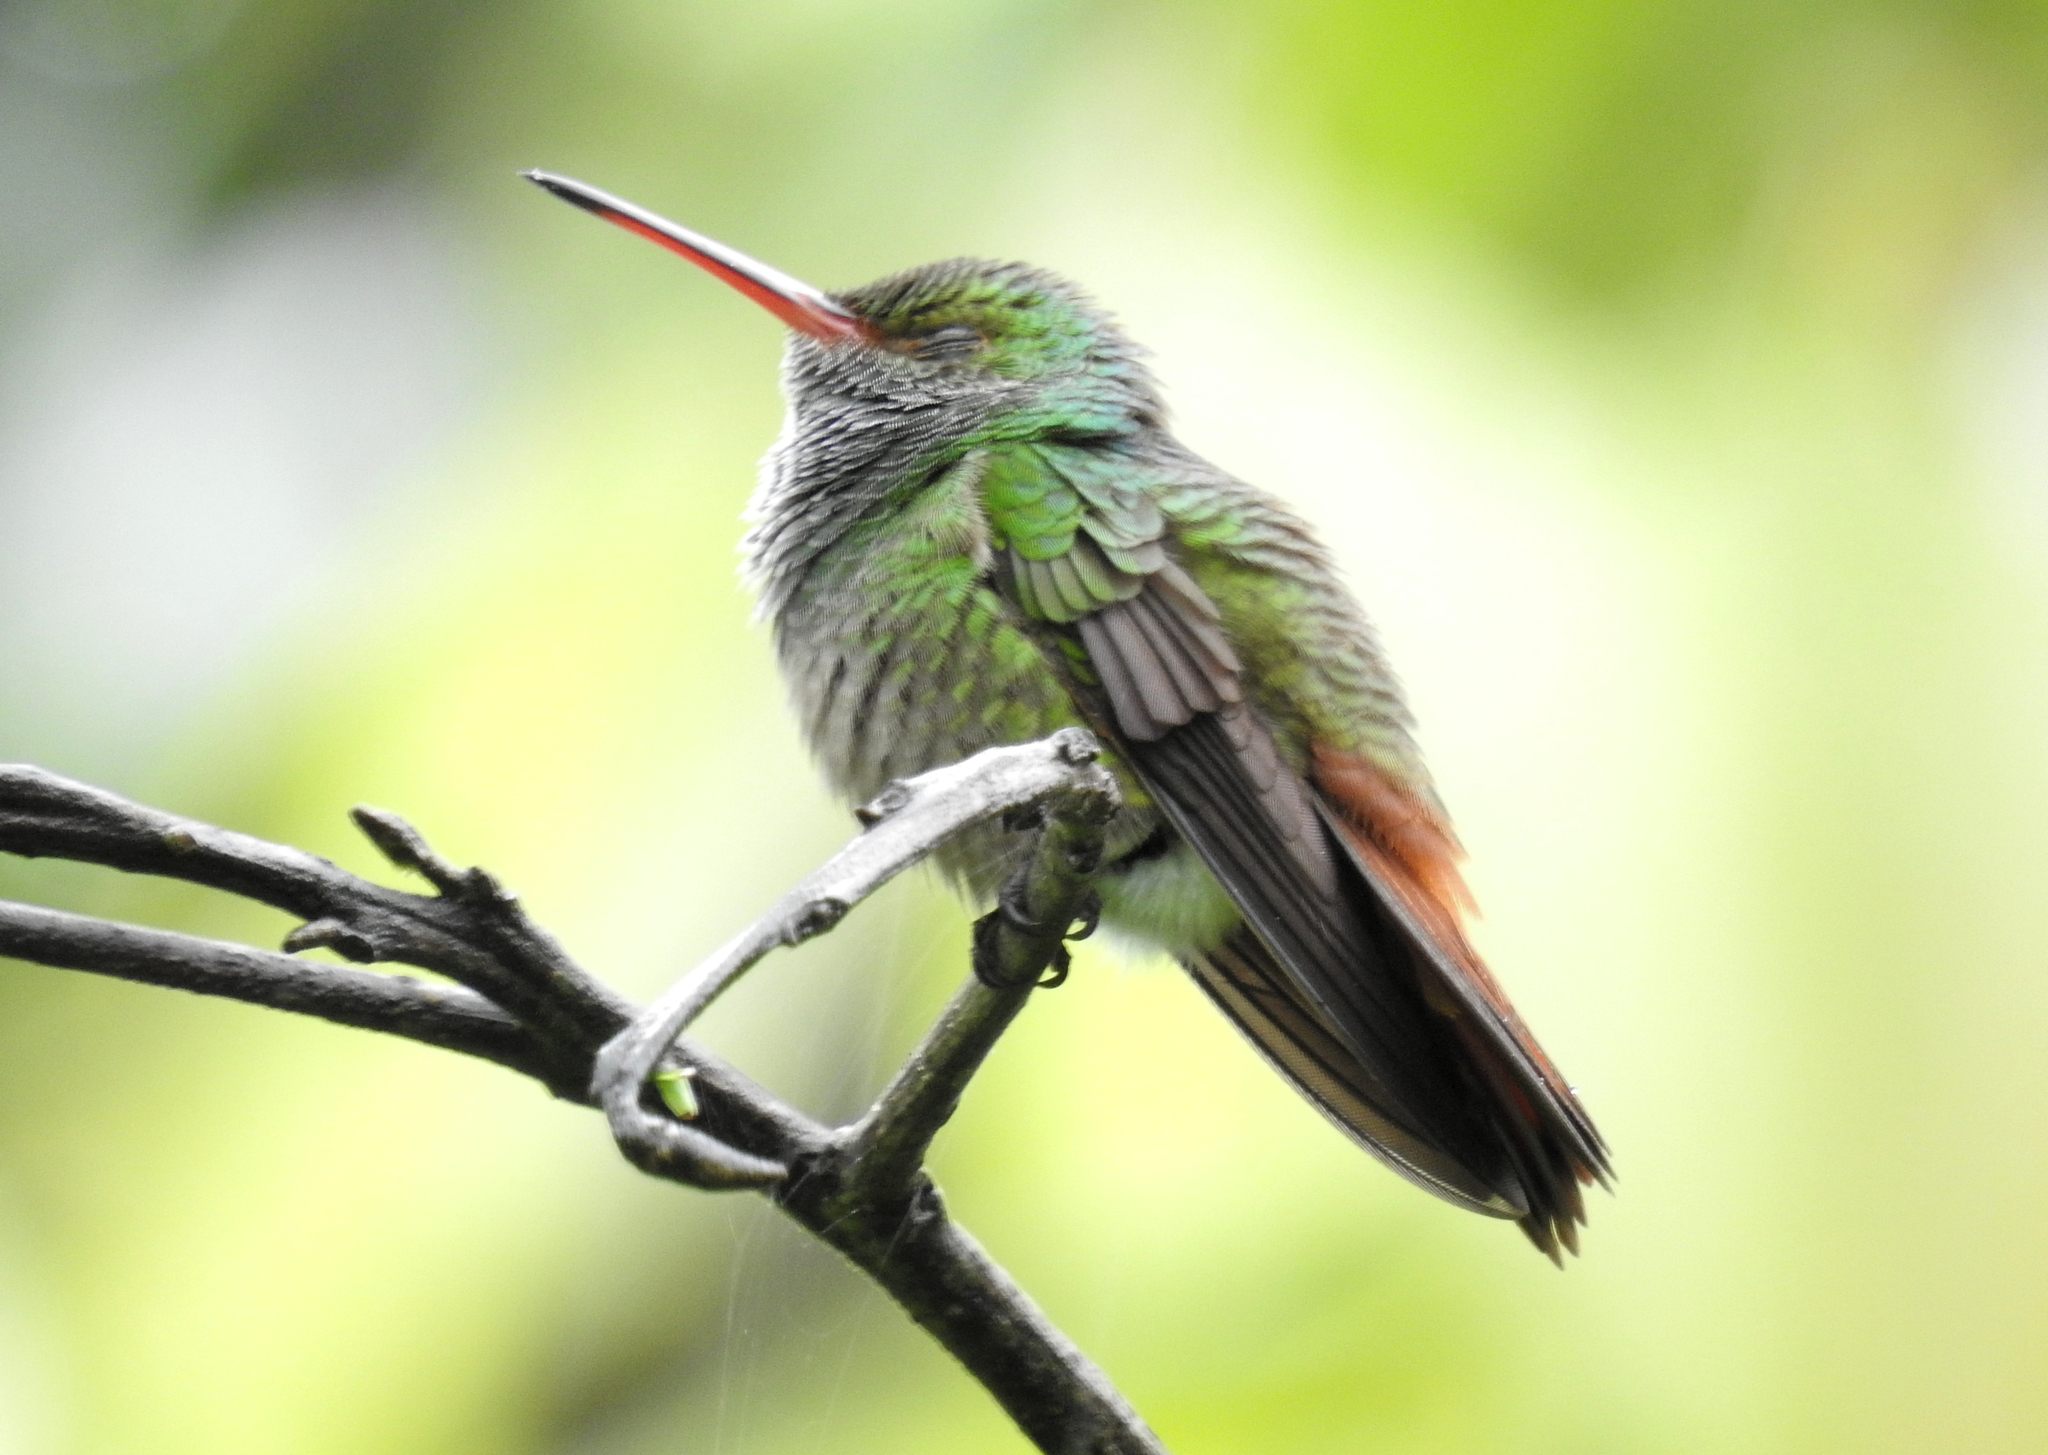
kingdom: Animalia
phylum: Chordata
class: Aves
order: Apodiformes
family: Trochilidae
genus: Amazilia
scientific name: Amazilia tzacatl
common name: Rufous-tailed hummingbird
